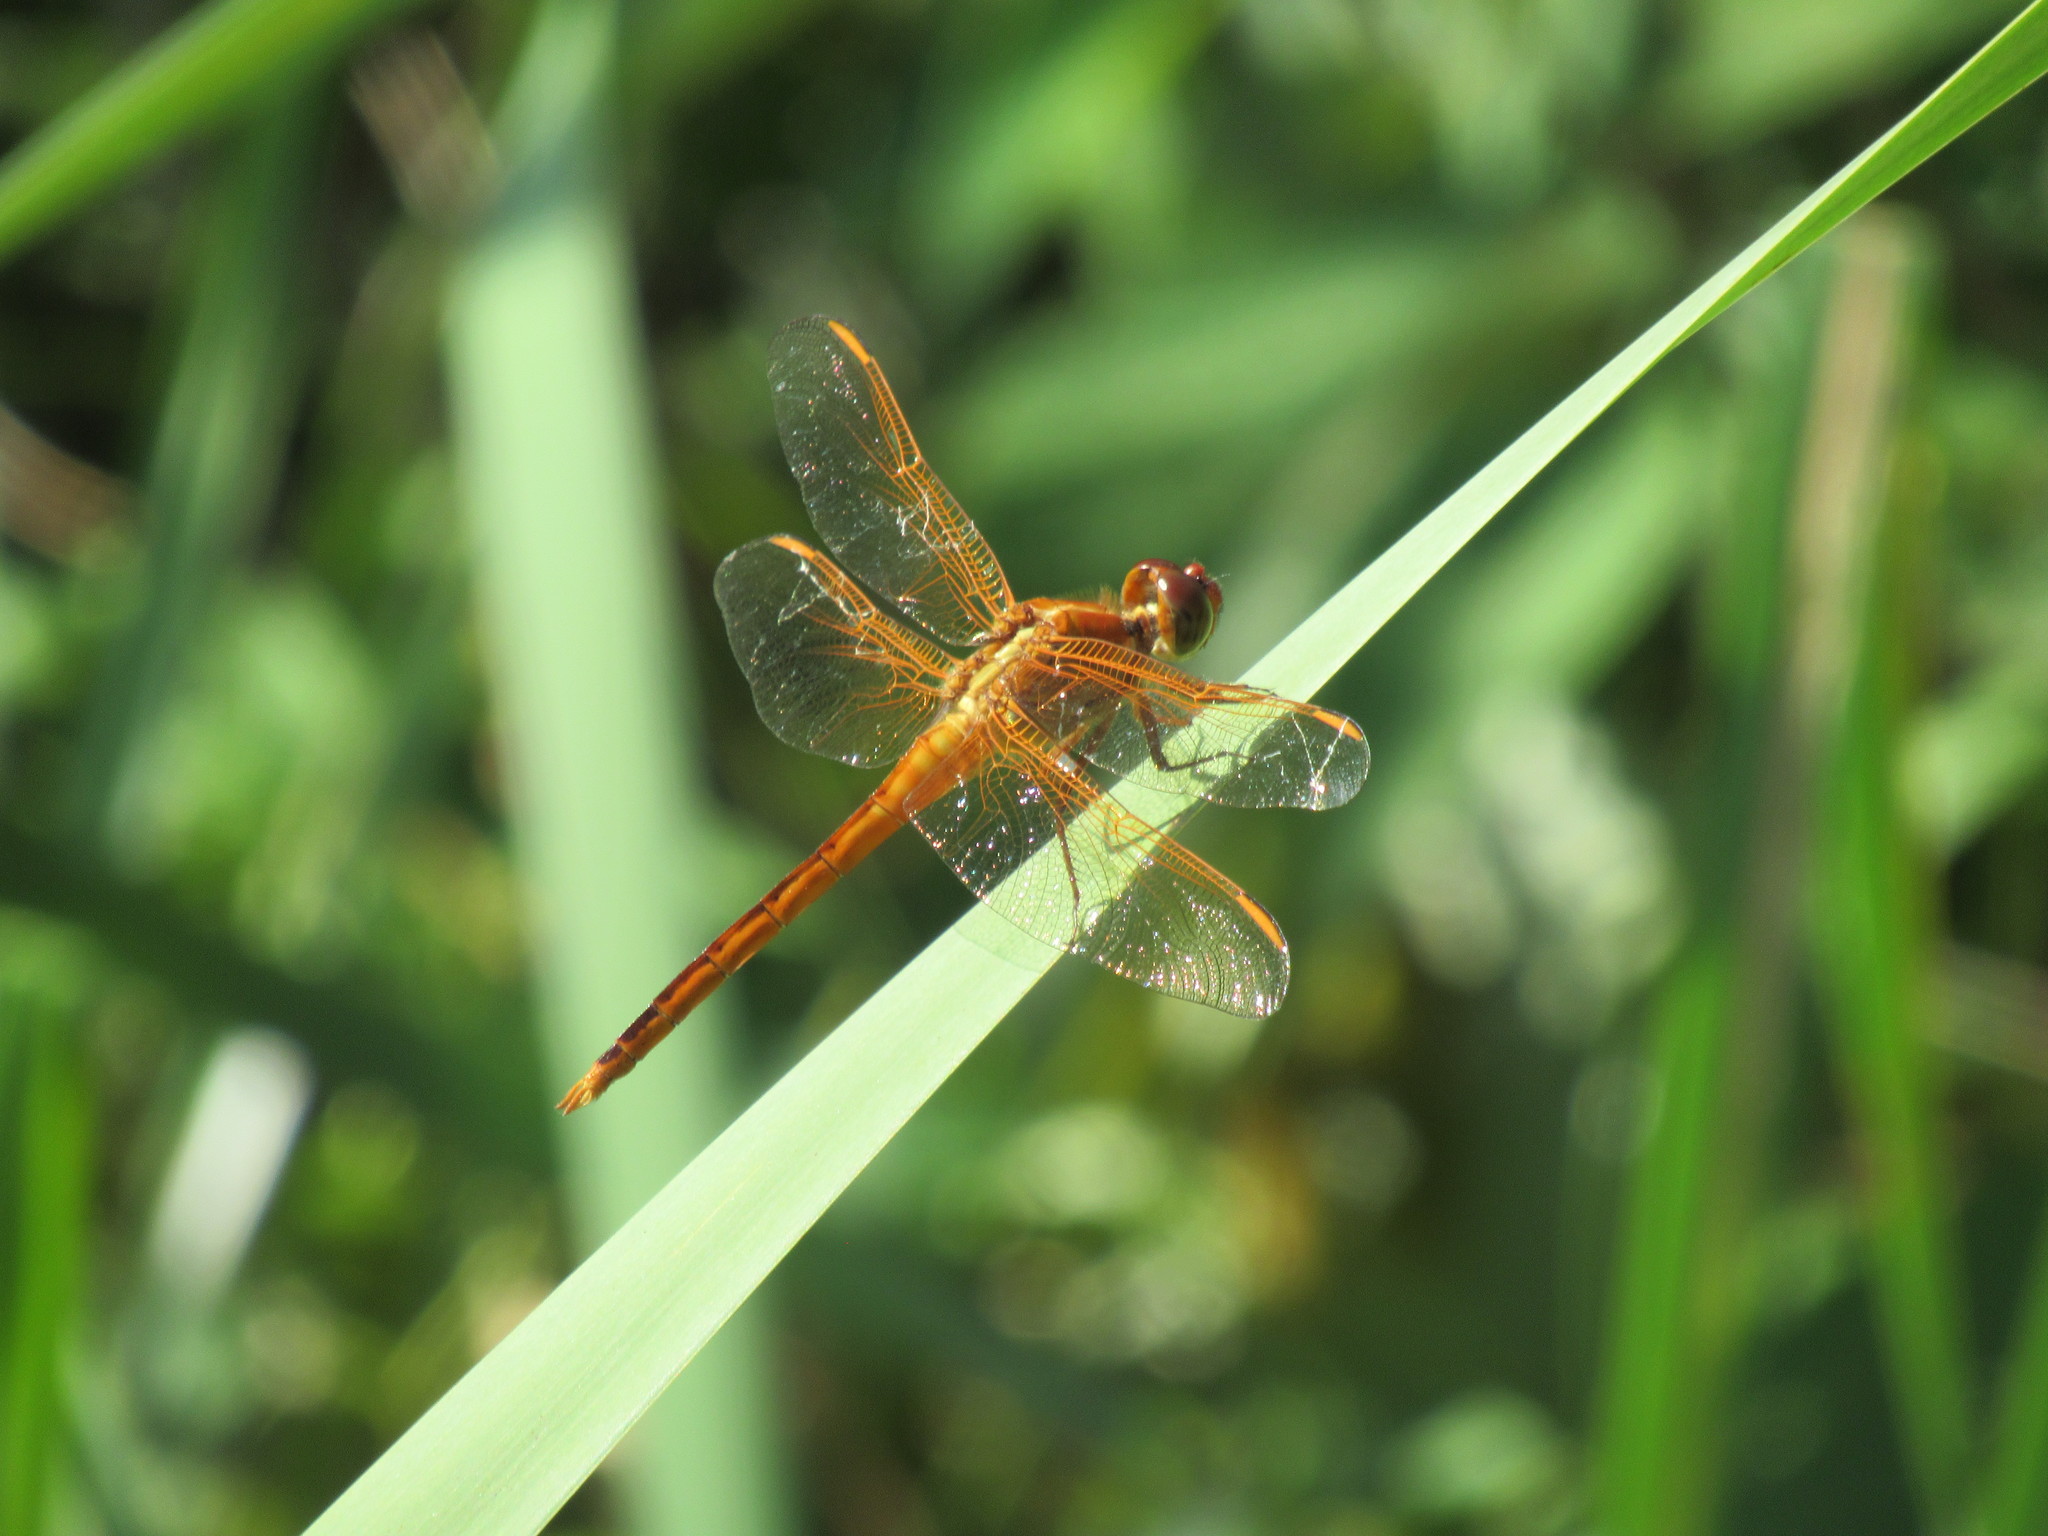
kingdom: Animalia
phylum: Arthropoda
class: Insecta
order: Odonata
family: Libellulidae
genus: Libellula
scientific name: Libellula needhami
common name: Needham's skimmer
